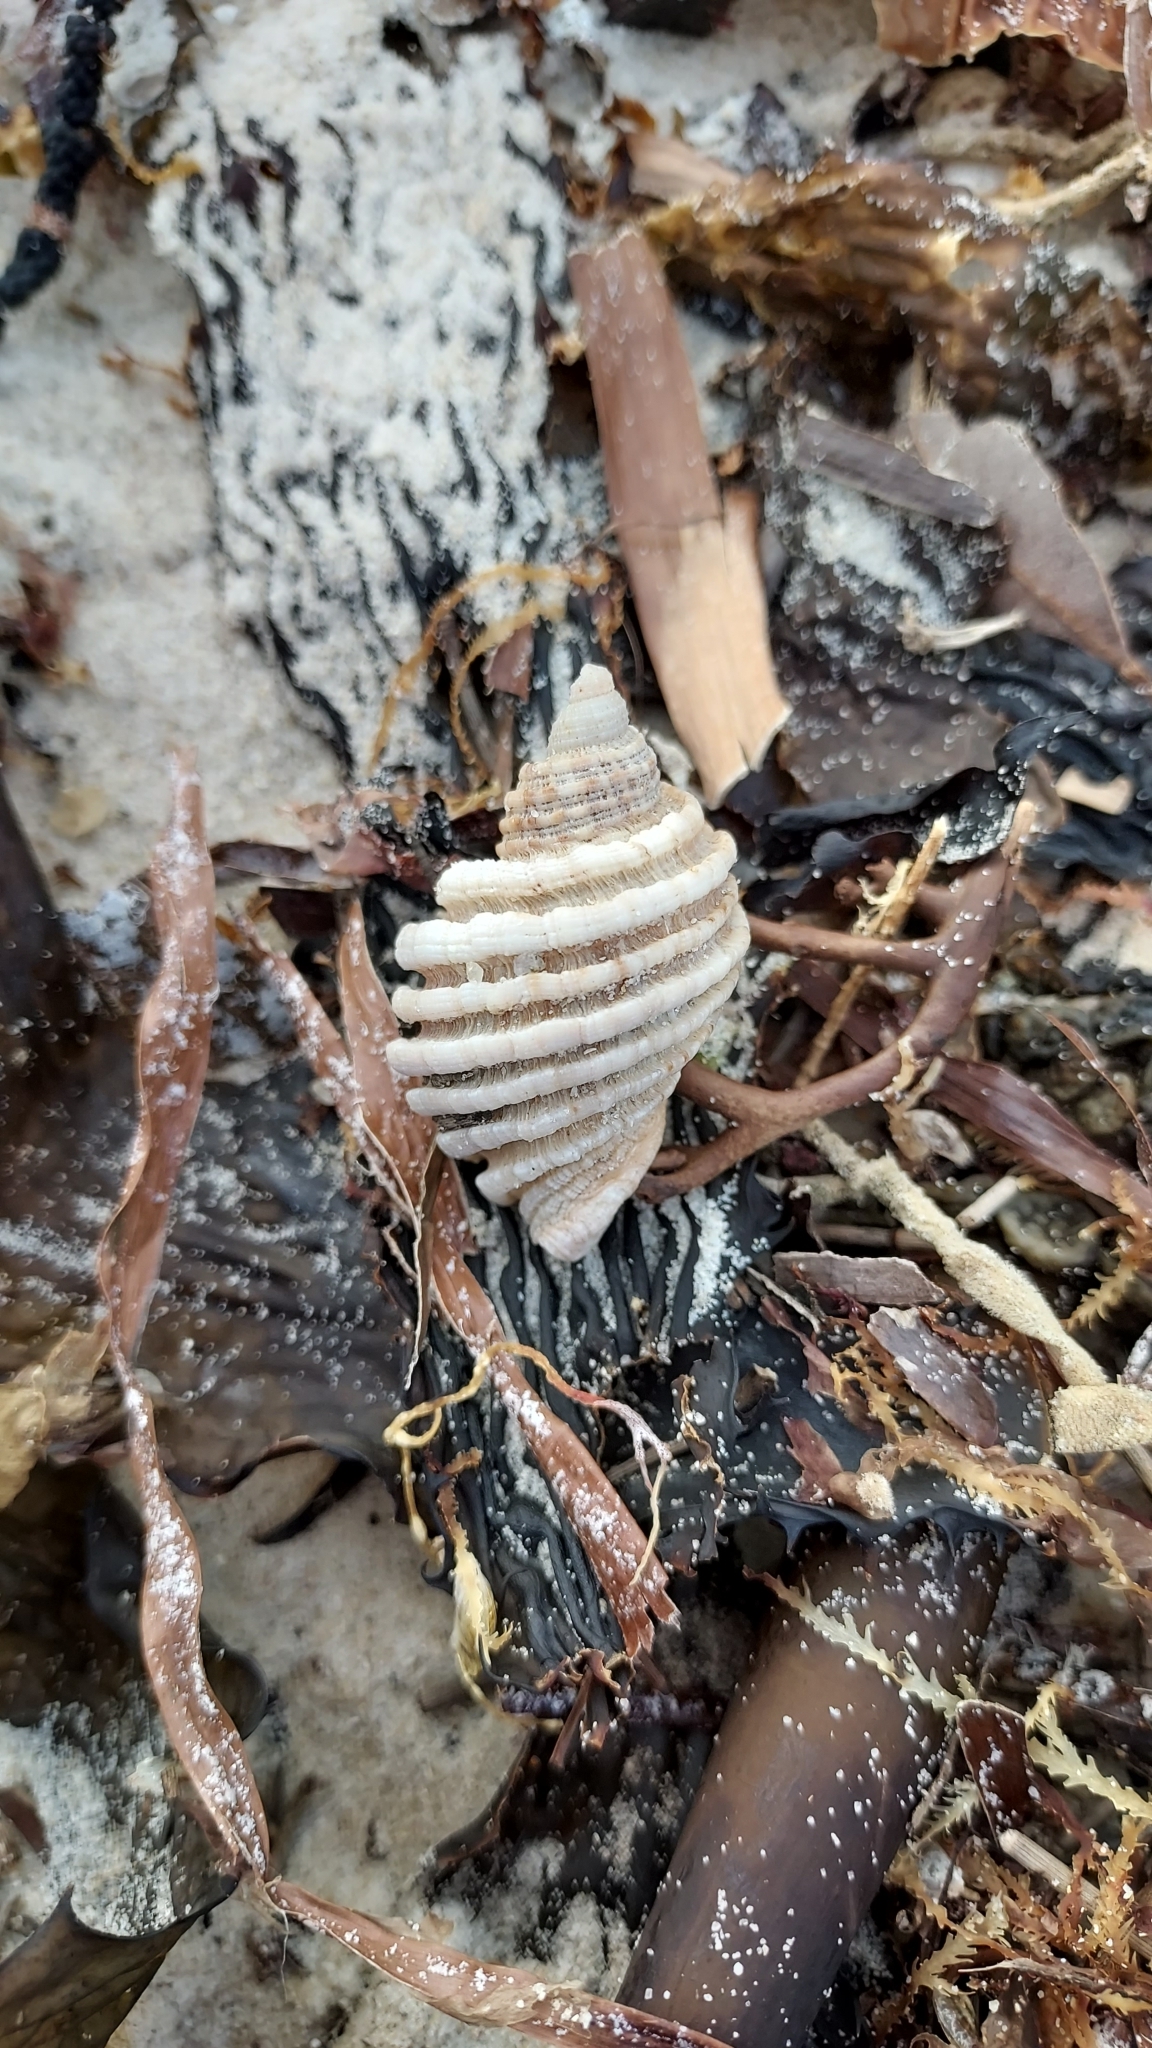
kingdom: Animalia
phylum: Mollusca
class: Gastropoda
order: Neogastropoda
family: Muricidae
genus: Dicathais
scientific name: Dicathais orbita
